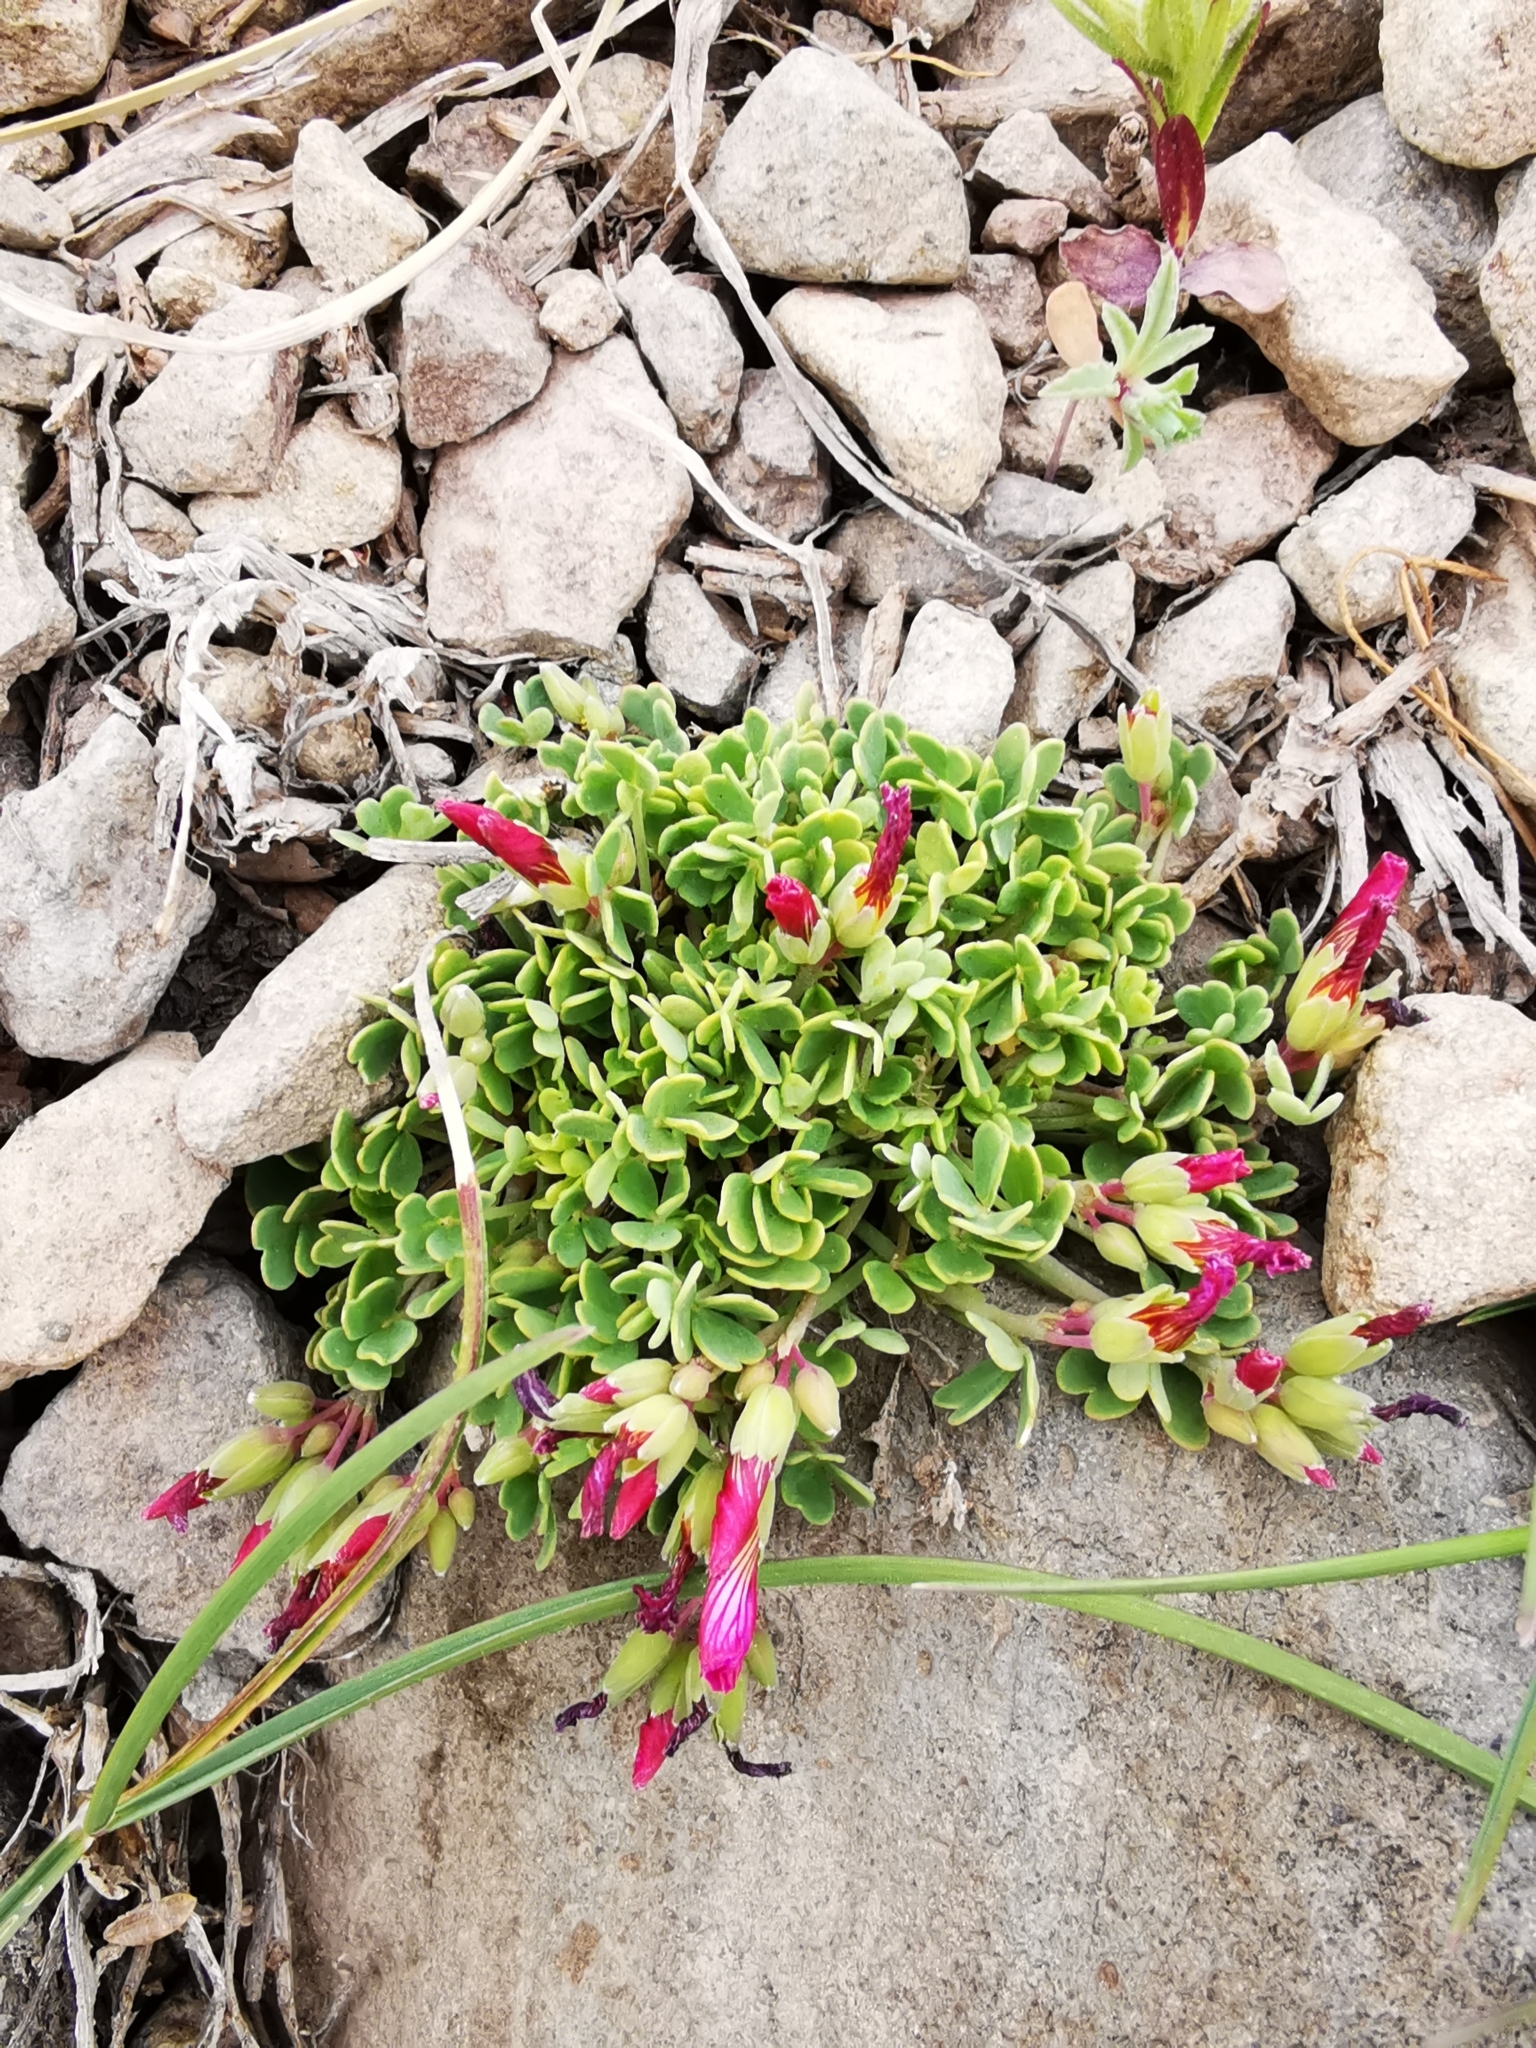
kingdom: Plantae
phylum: Tracheophyta
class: Magnoliopsida
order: Oxalidales
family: Oxalidaceae
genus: Oxalis
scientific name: Oxalis squamata
